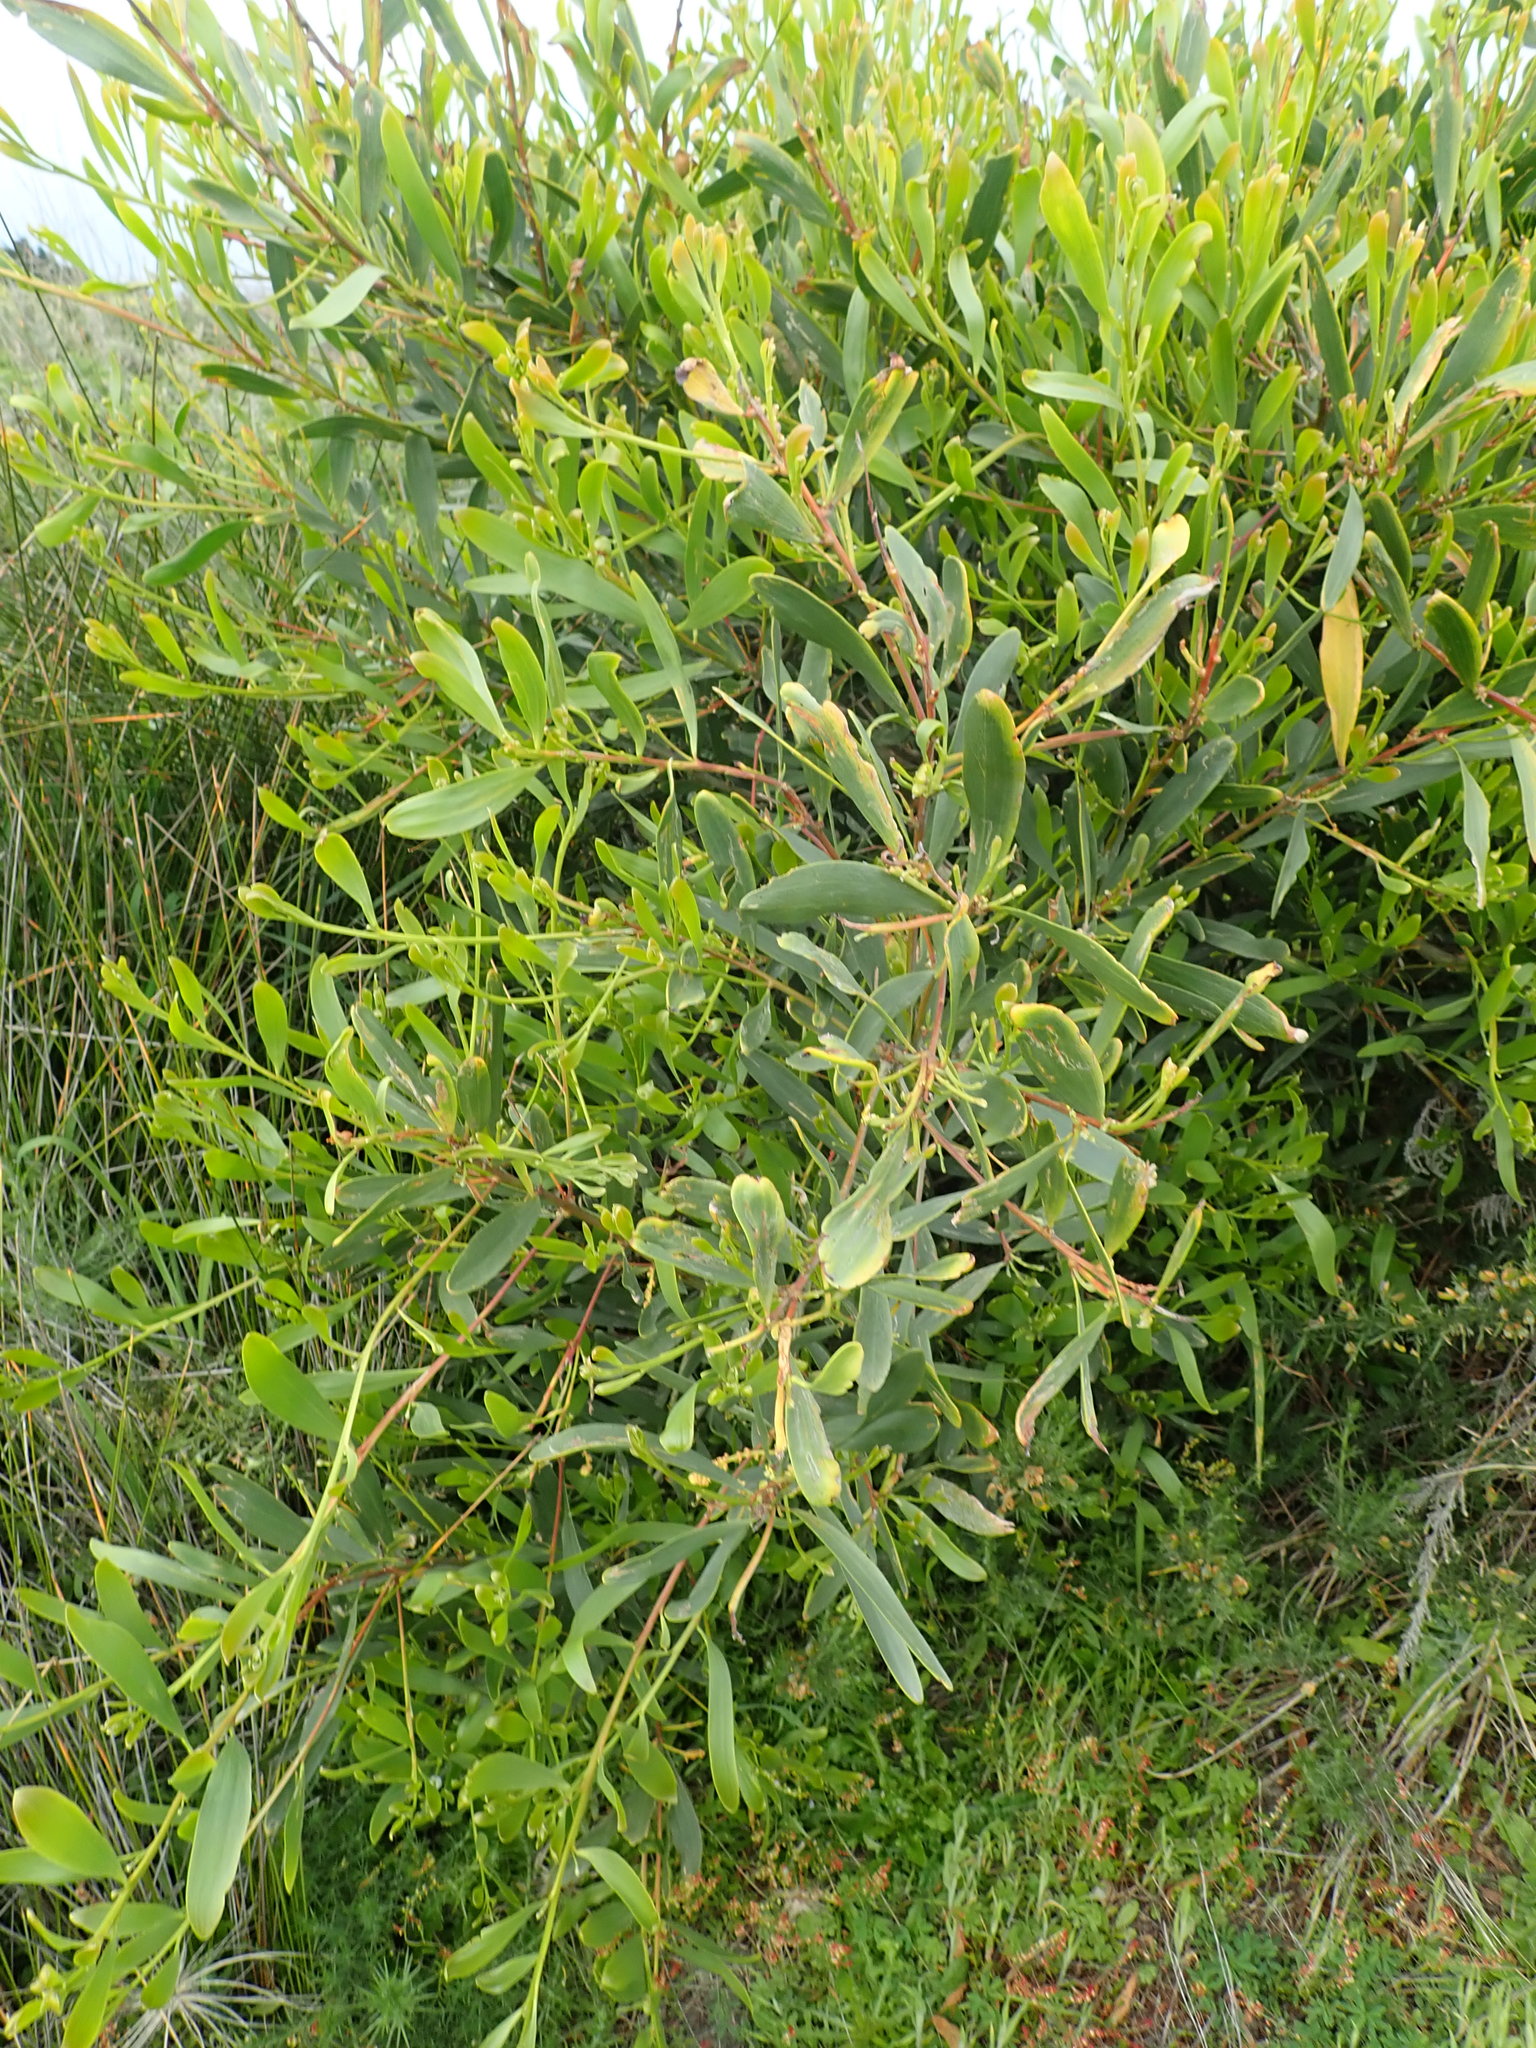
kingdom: Plantae
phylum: Tracheophyta
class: Magnoliopsida
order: Fabales
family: Fabaceae
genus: Acacia
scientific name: Acacia longifolia
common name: Sydney golden wattle
